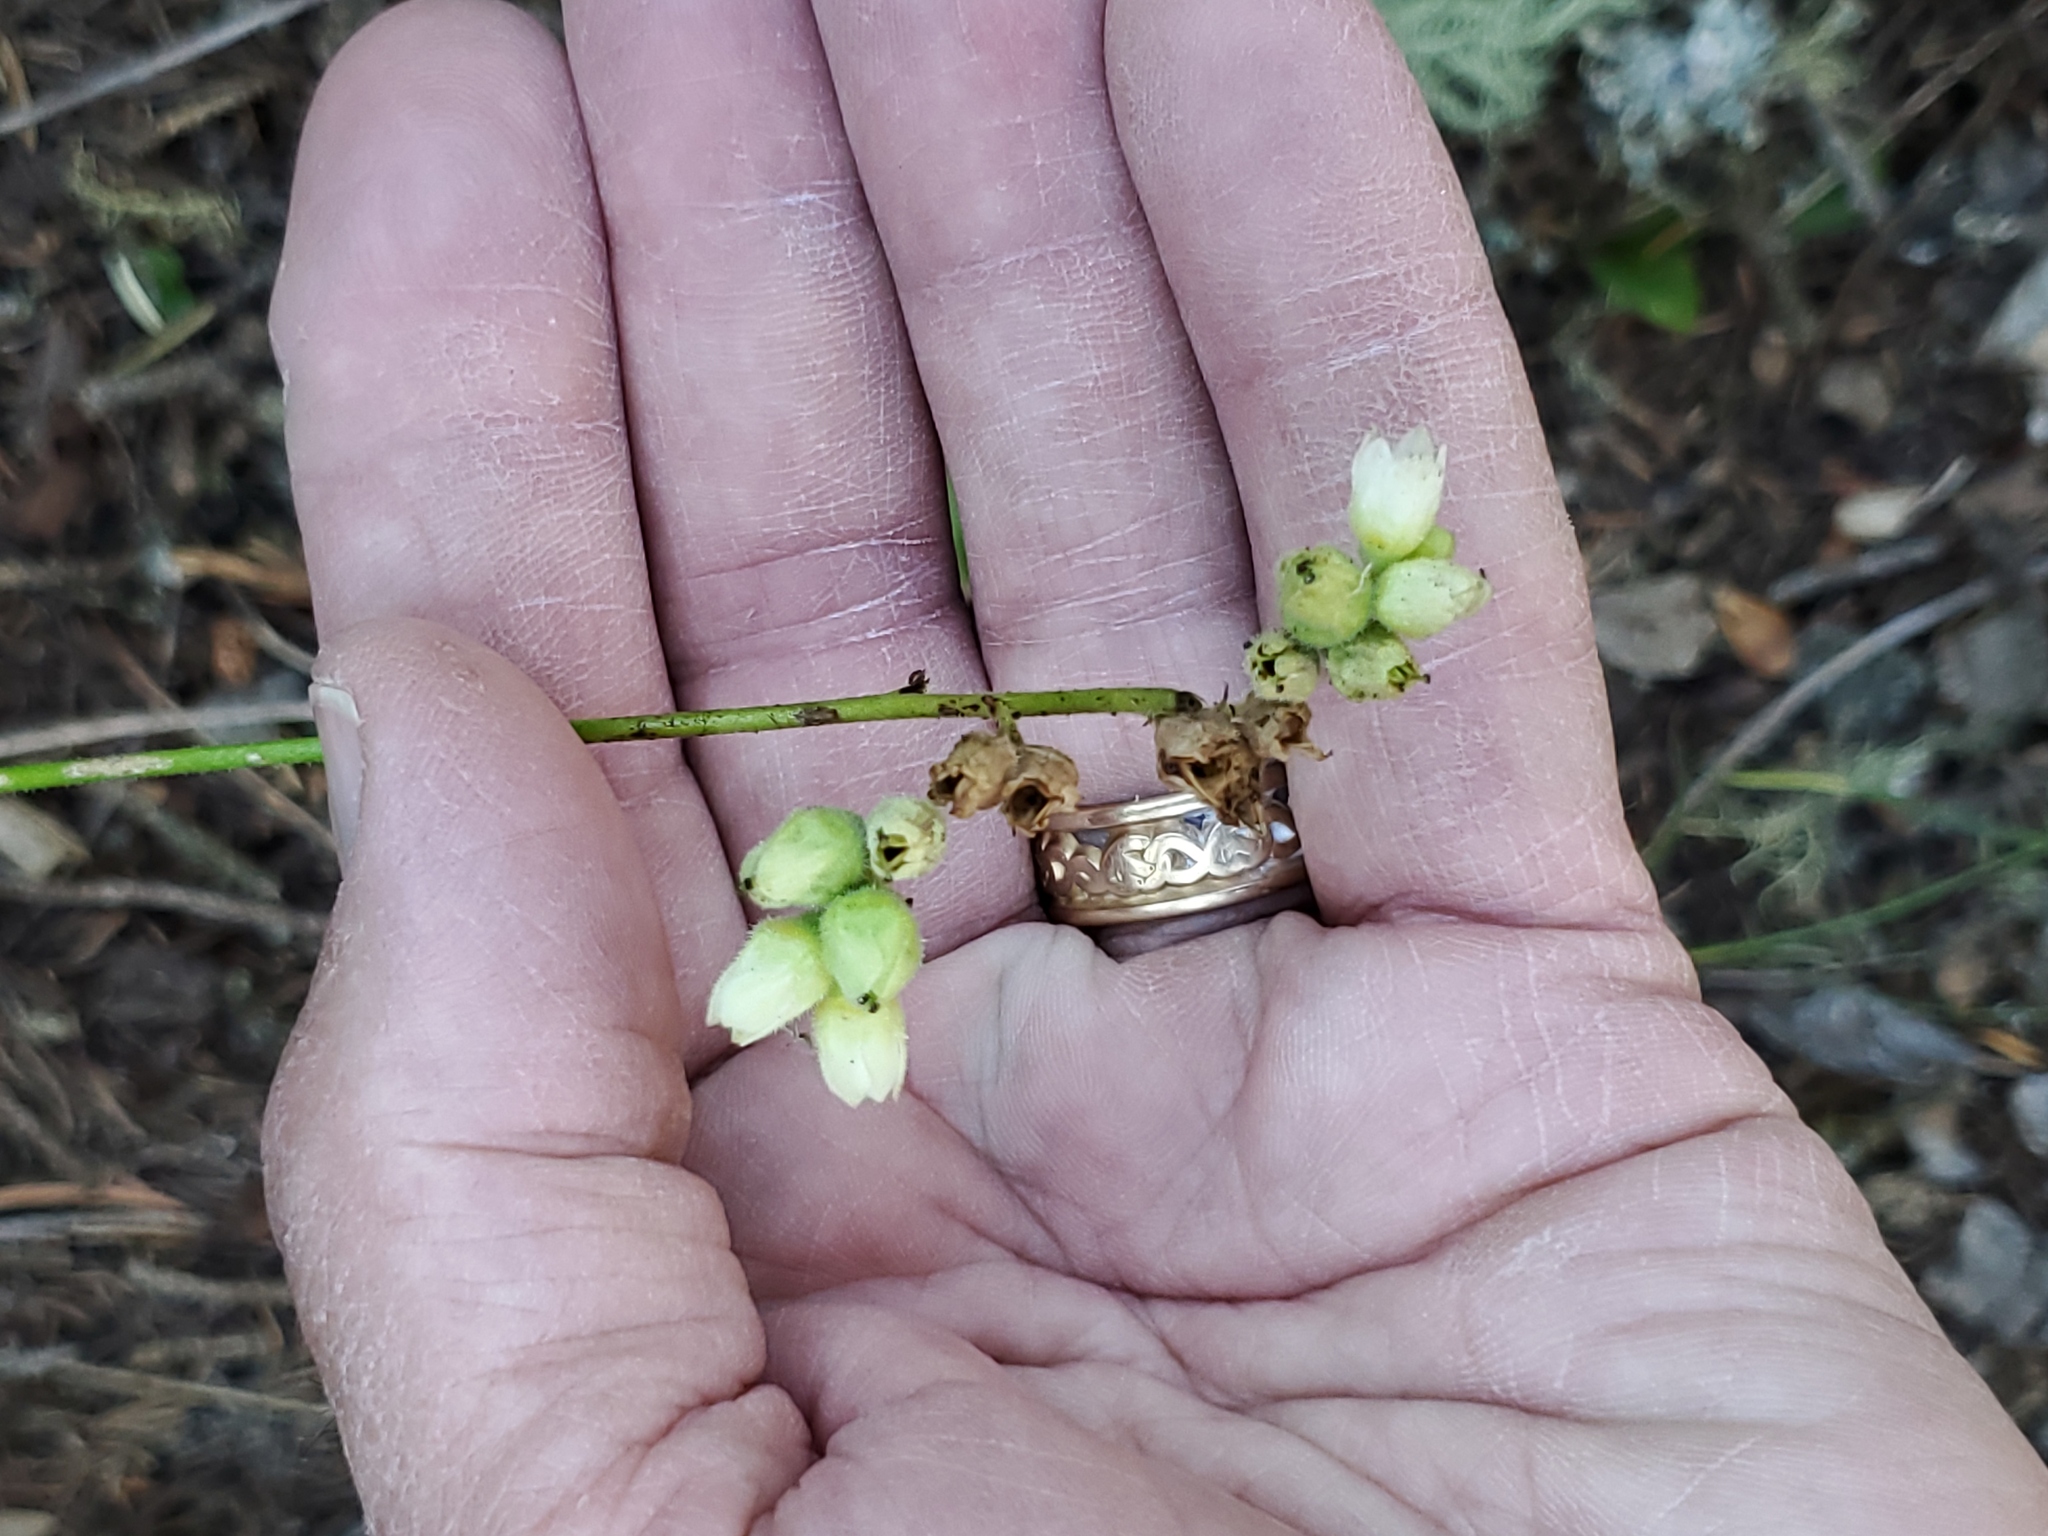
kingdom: Plantae
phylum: Tracheophyta
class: Magnoliopsida
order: Saxifragales
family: Saxifragaceae
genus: Heuchera
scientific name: Heuchera cylindrica
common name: Mat alumroot
